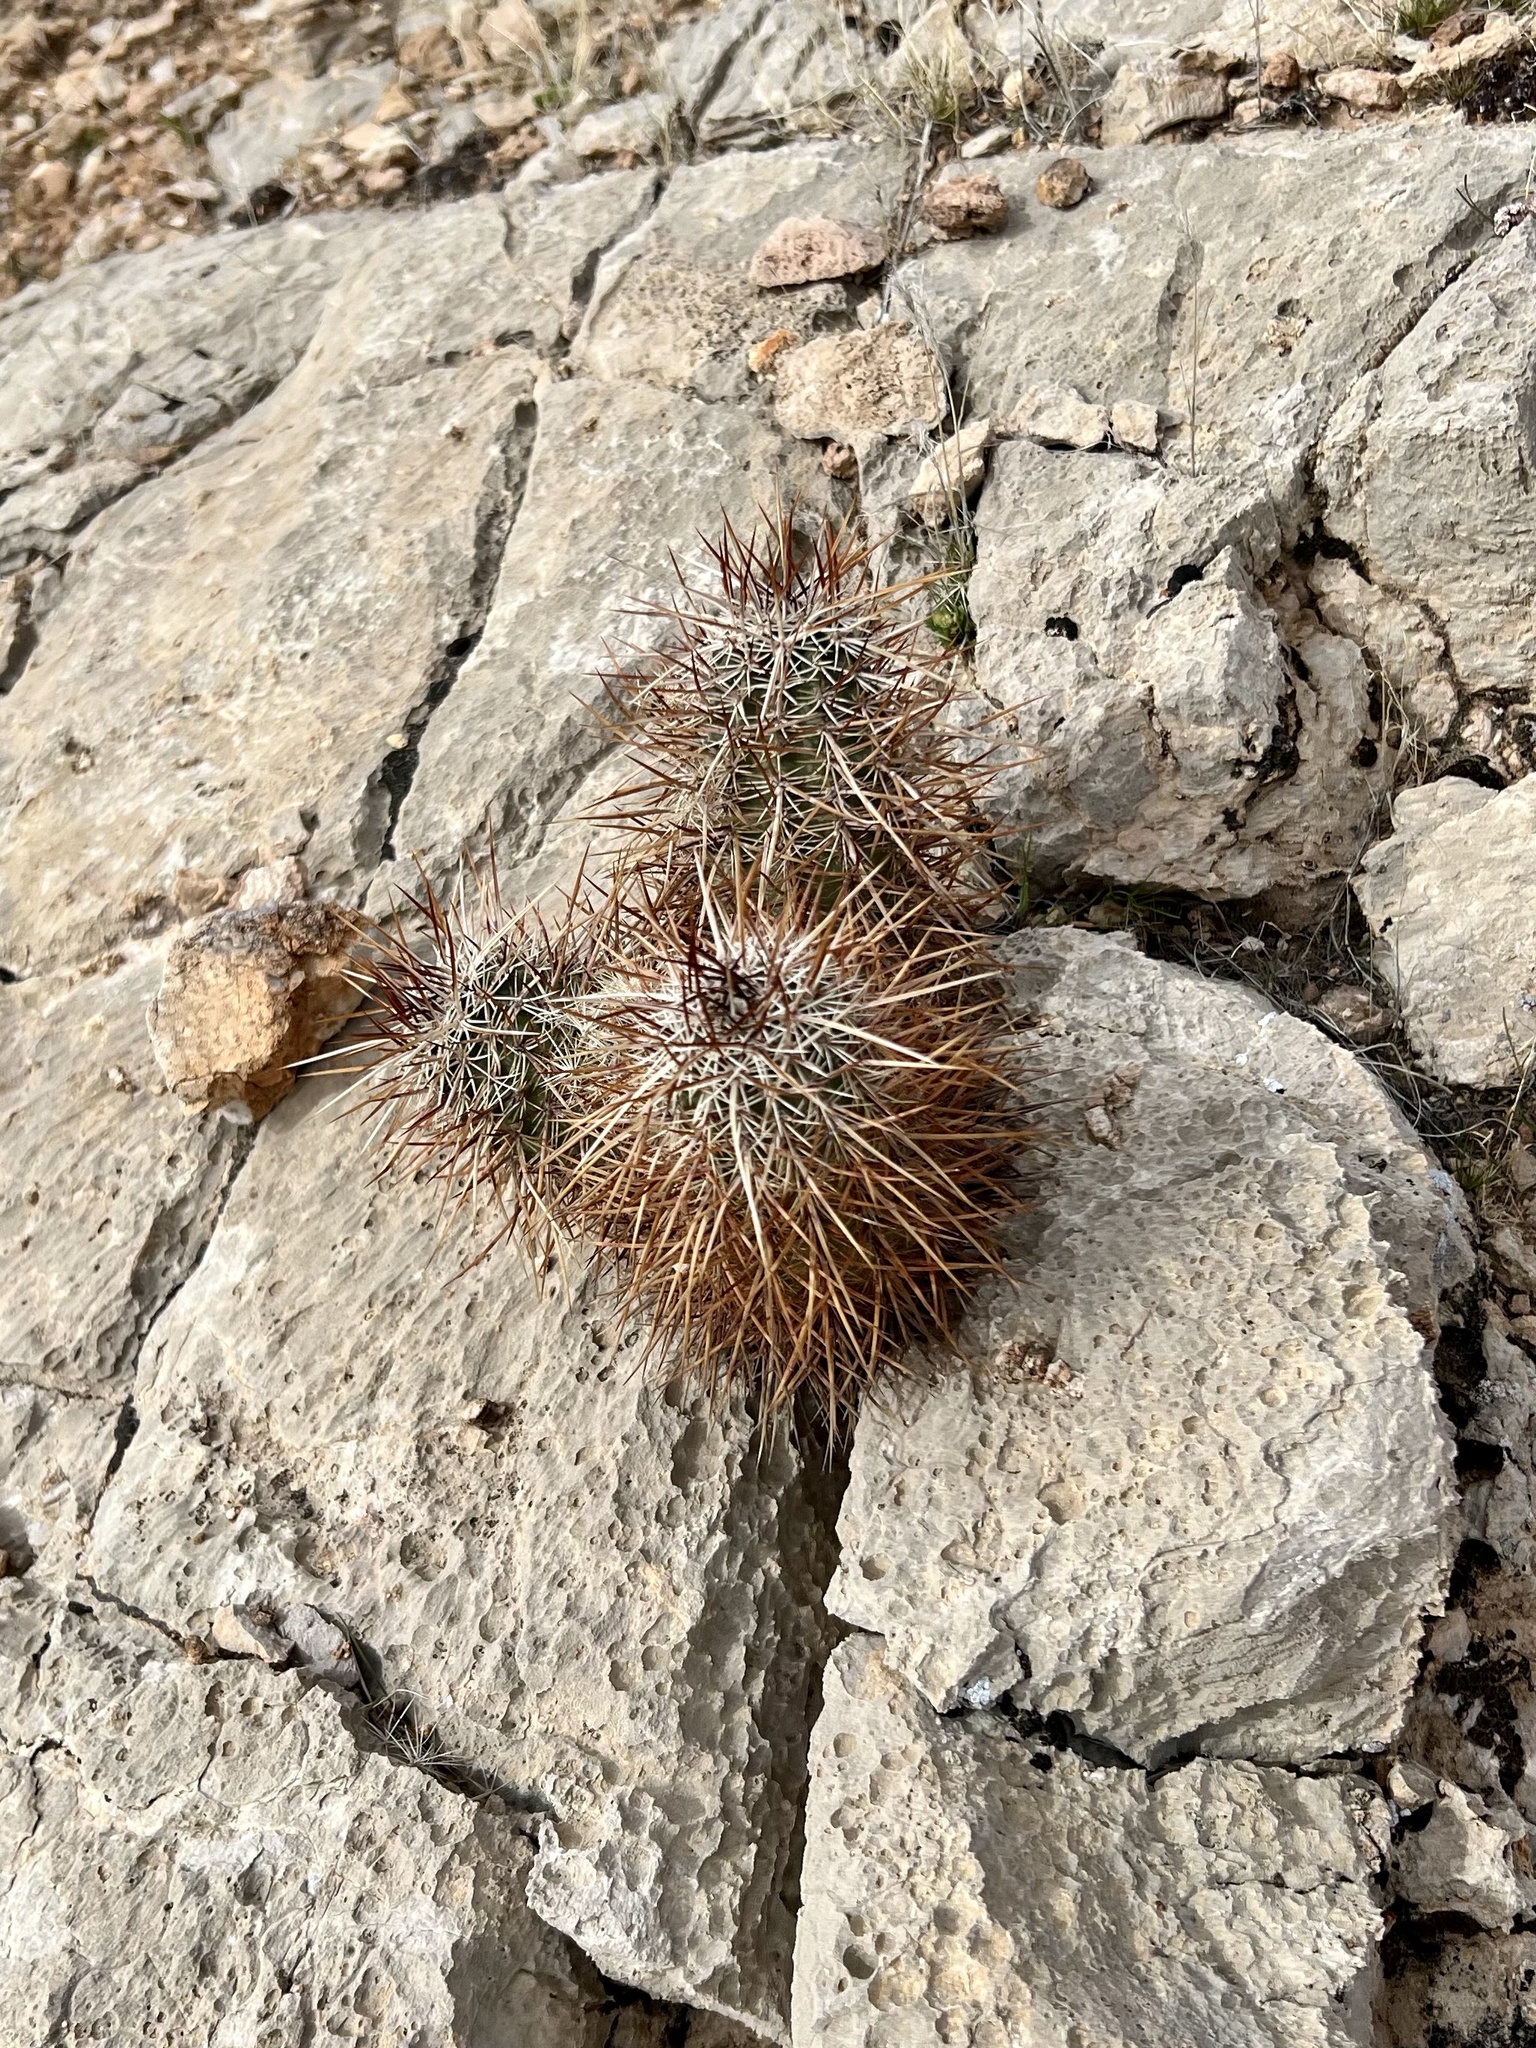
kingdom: Plantae
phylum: Tracheophyta
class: Magnoliopsida
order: Caryophyllales
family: Cactaceae
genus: Echinocereus
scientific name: Echinocereus engelmannii
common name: Engelmann's hedgehog cactus
